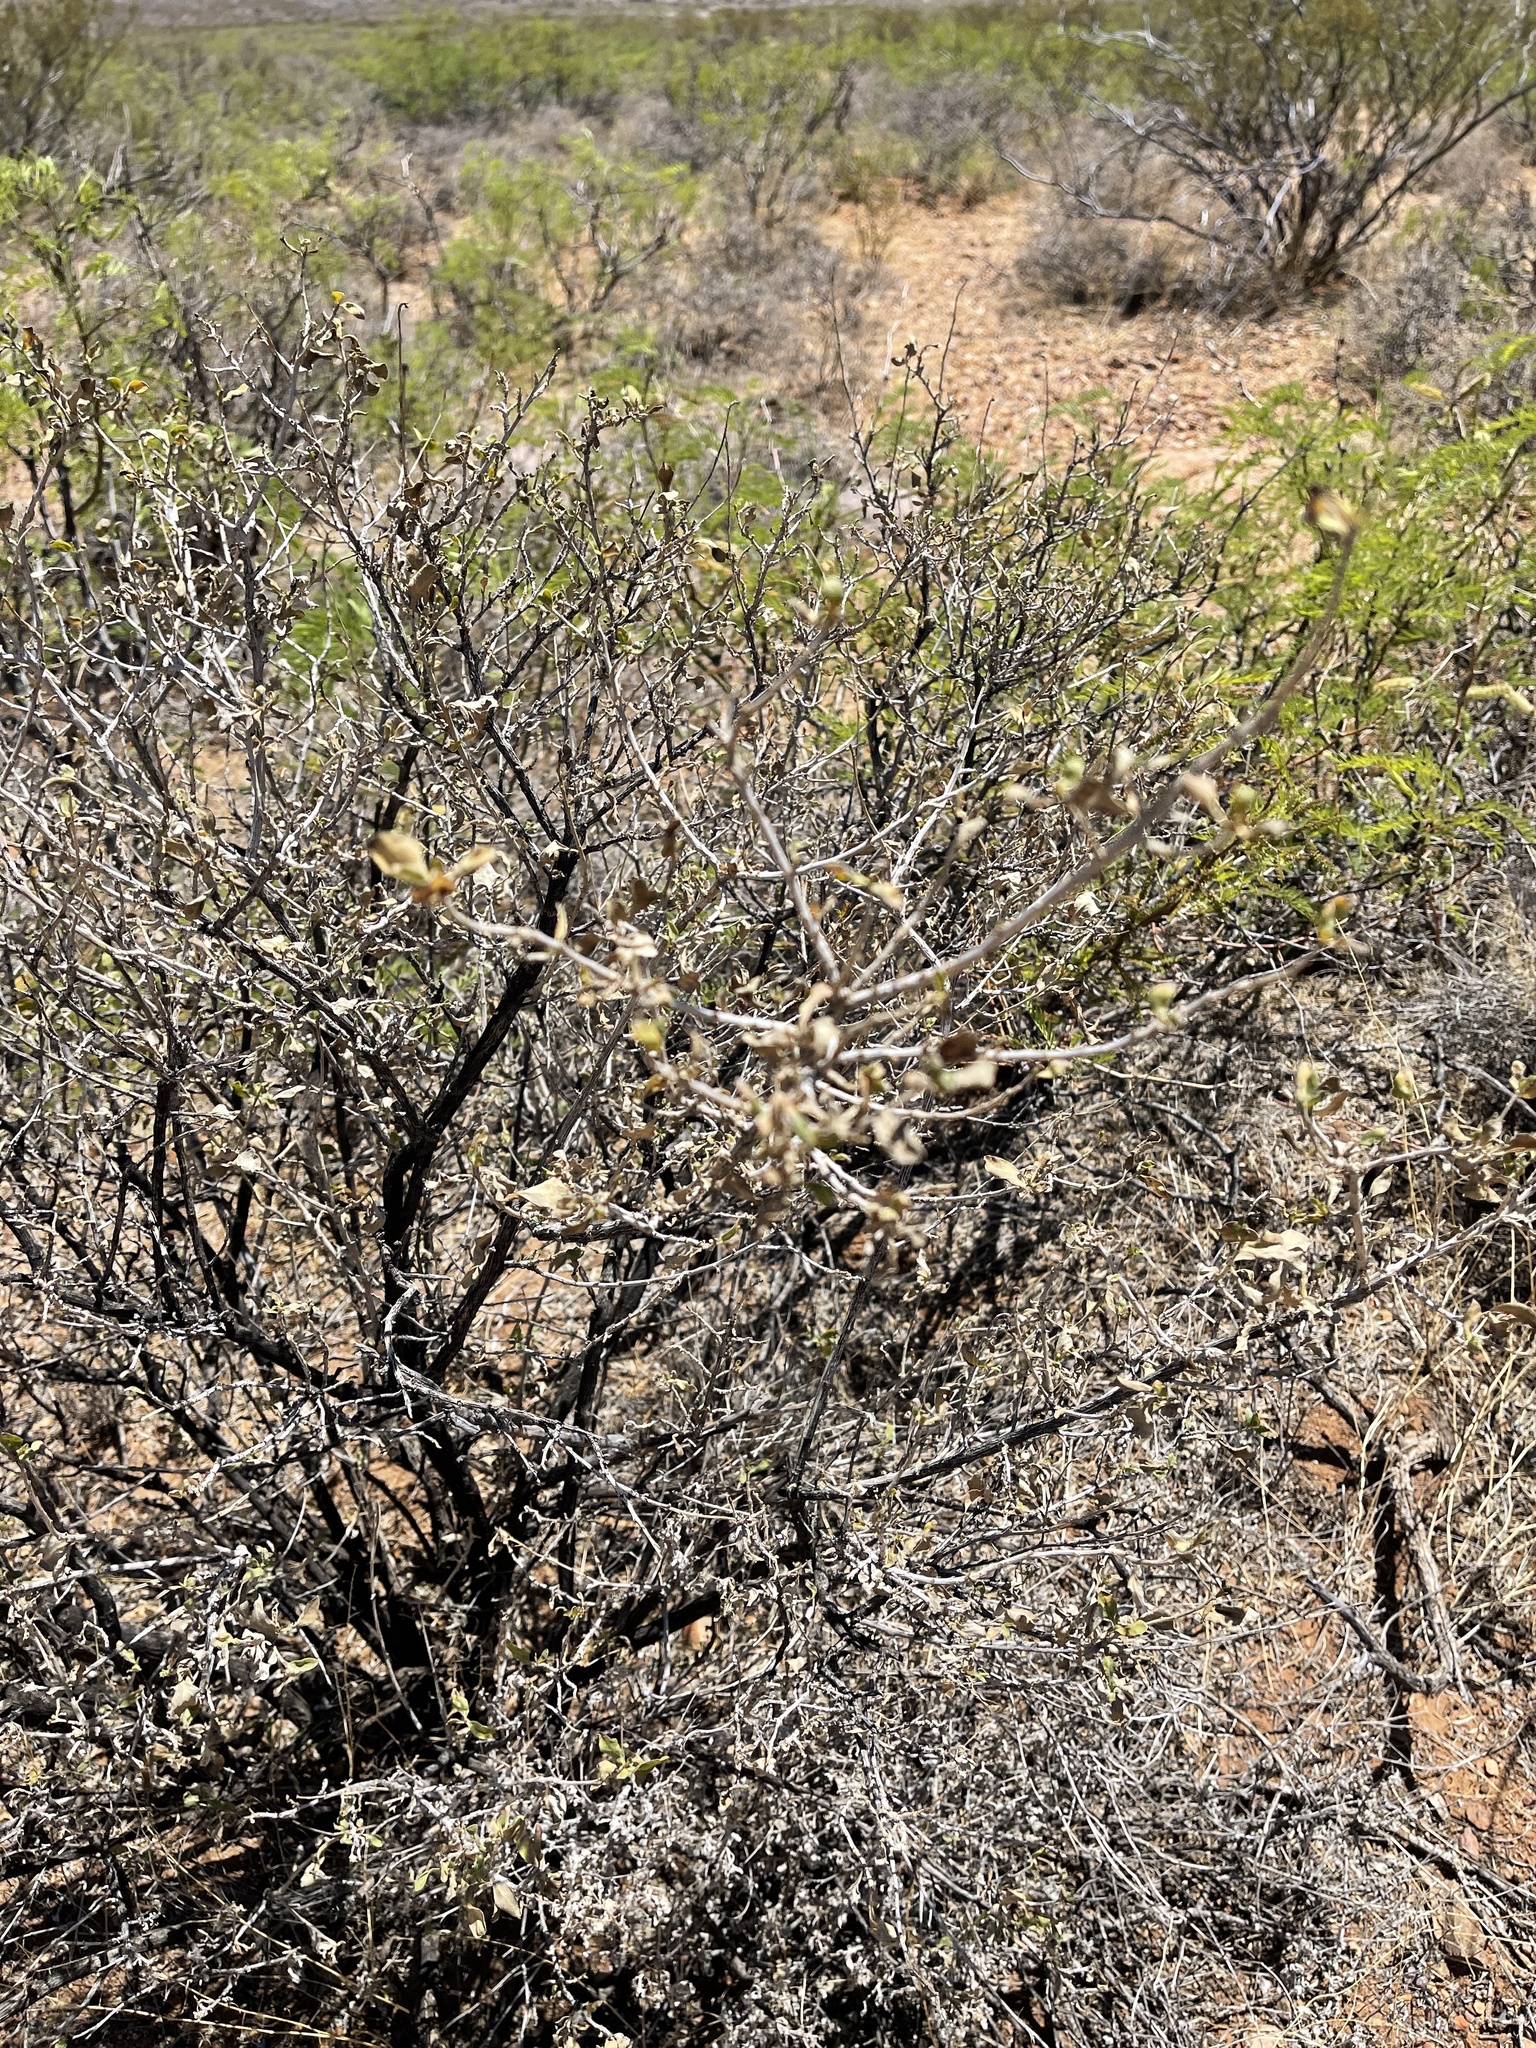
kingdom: Plantae
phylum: Tracheophyta
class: Magnoliopsida
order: Asterales
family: Asteraceae
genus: Flourensia
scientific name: Flourensia cernua
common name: Varnishbush
